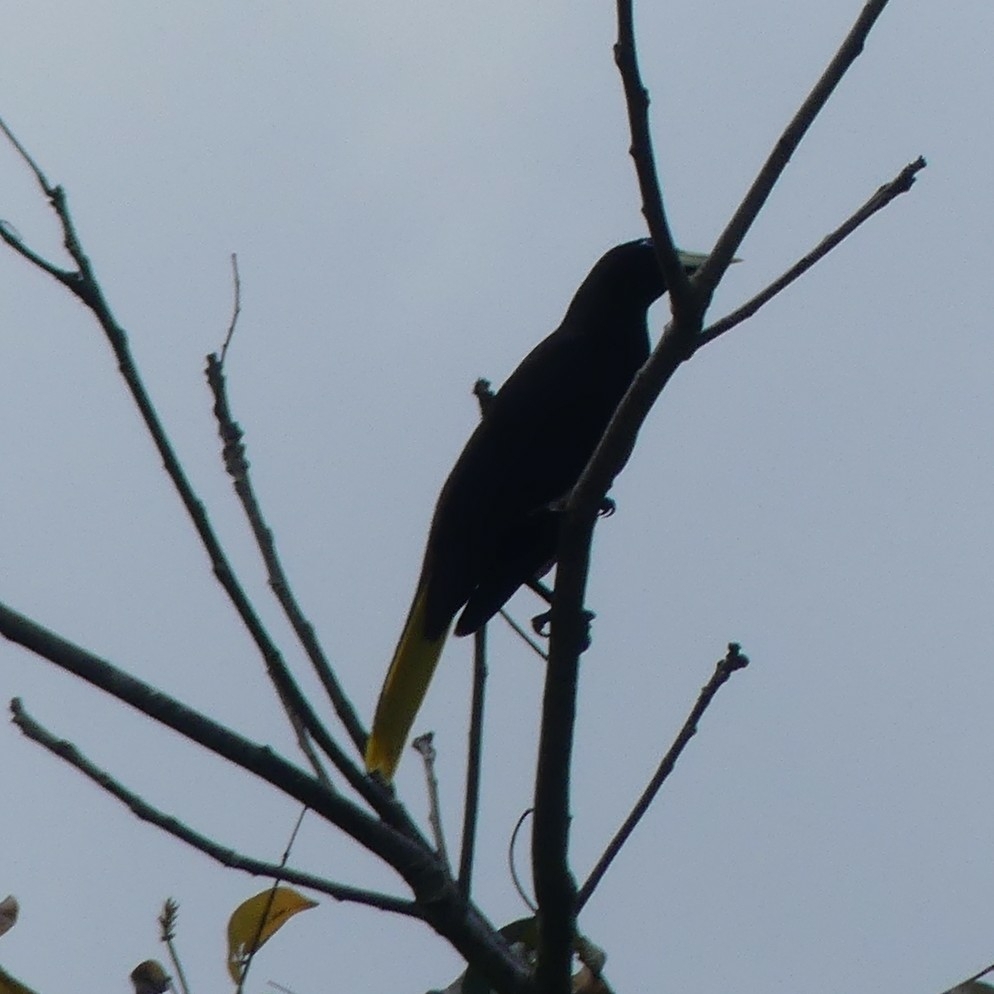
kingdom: Animalia
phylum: Chordata
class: Aves
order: Passeriformes
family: Icteridae
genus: Psarocolius
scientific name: Psarocolius decumanus
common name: Crested oropendola
